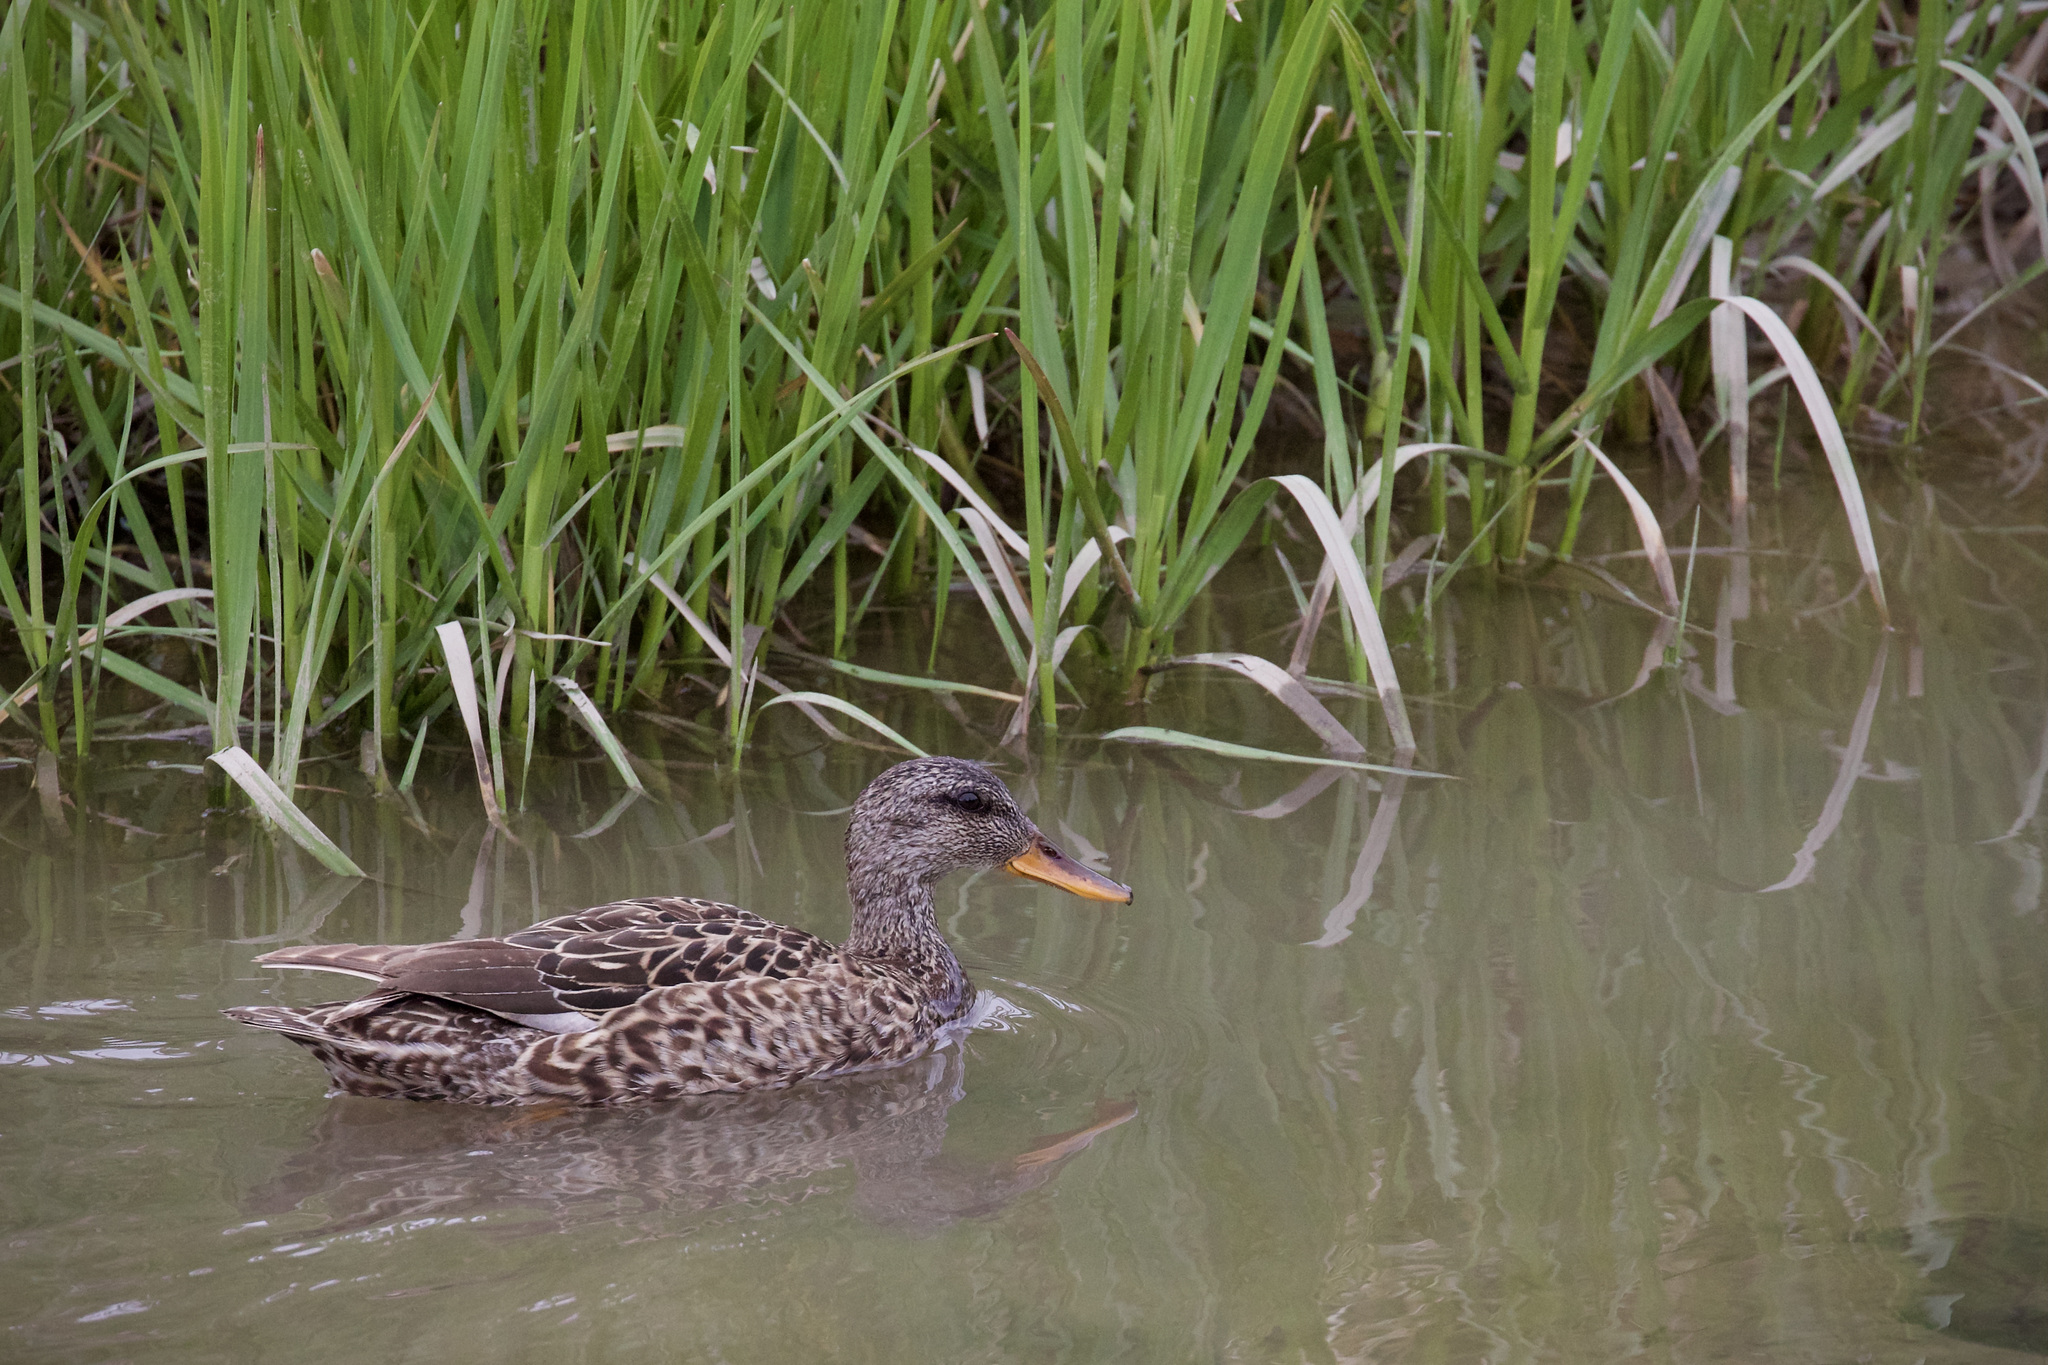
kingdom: Animalia
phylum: Chordata
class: Aves
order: Anseriformes
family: Anatidae
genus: Mareca
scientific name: Mareca strepera
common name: Gadwall
